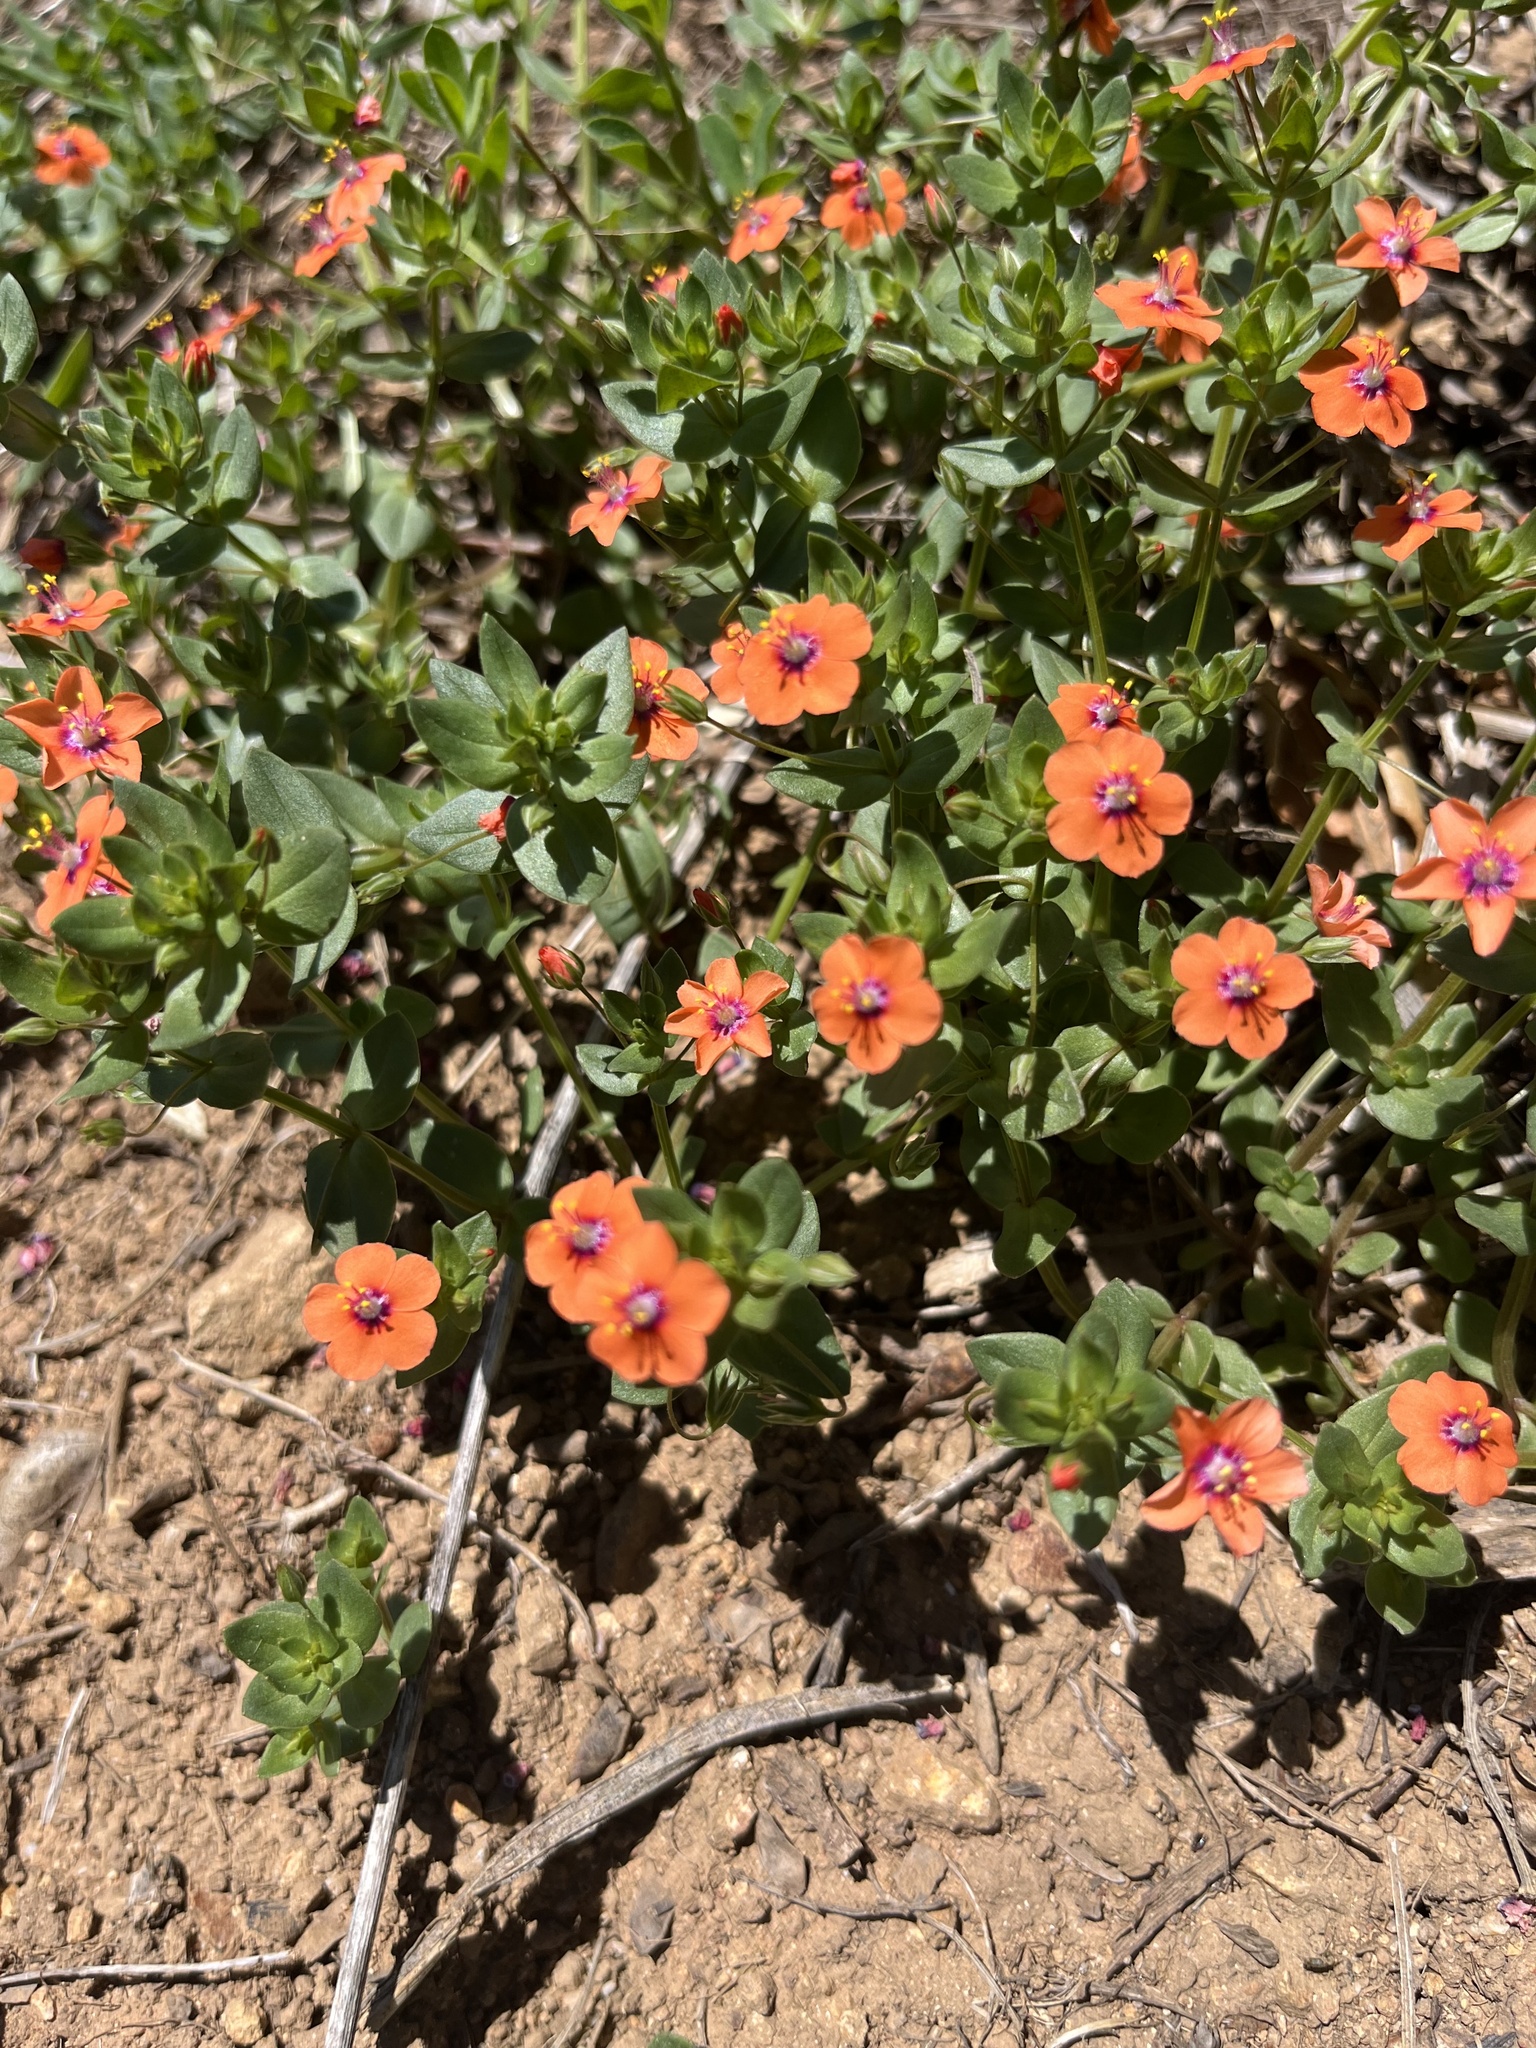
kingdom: Plantae
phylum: Tracheophyta
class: Magnoliopsida
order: Ericales
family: Primulaceae
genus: Lysimachia
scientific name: Lysimachia arvensis
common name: Scarlet pimpernel
